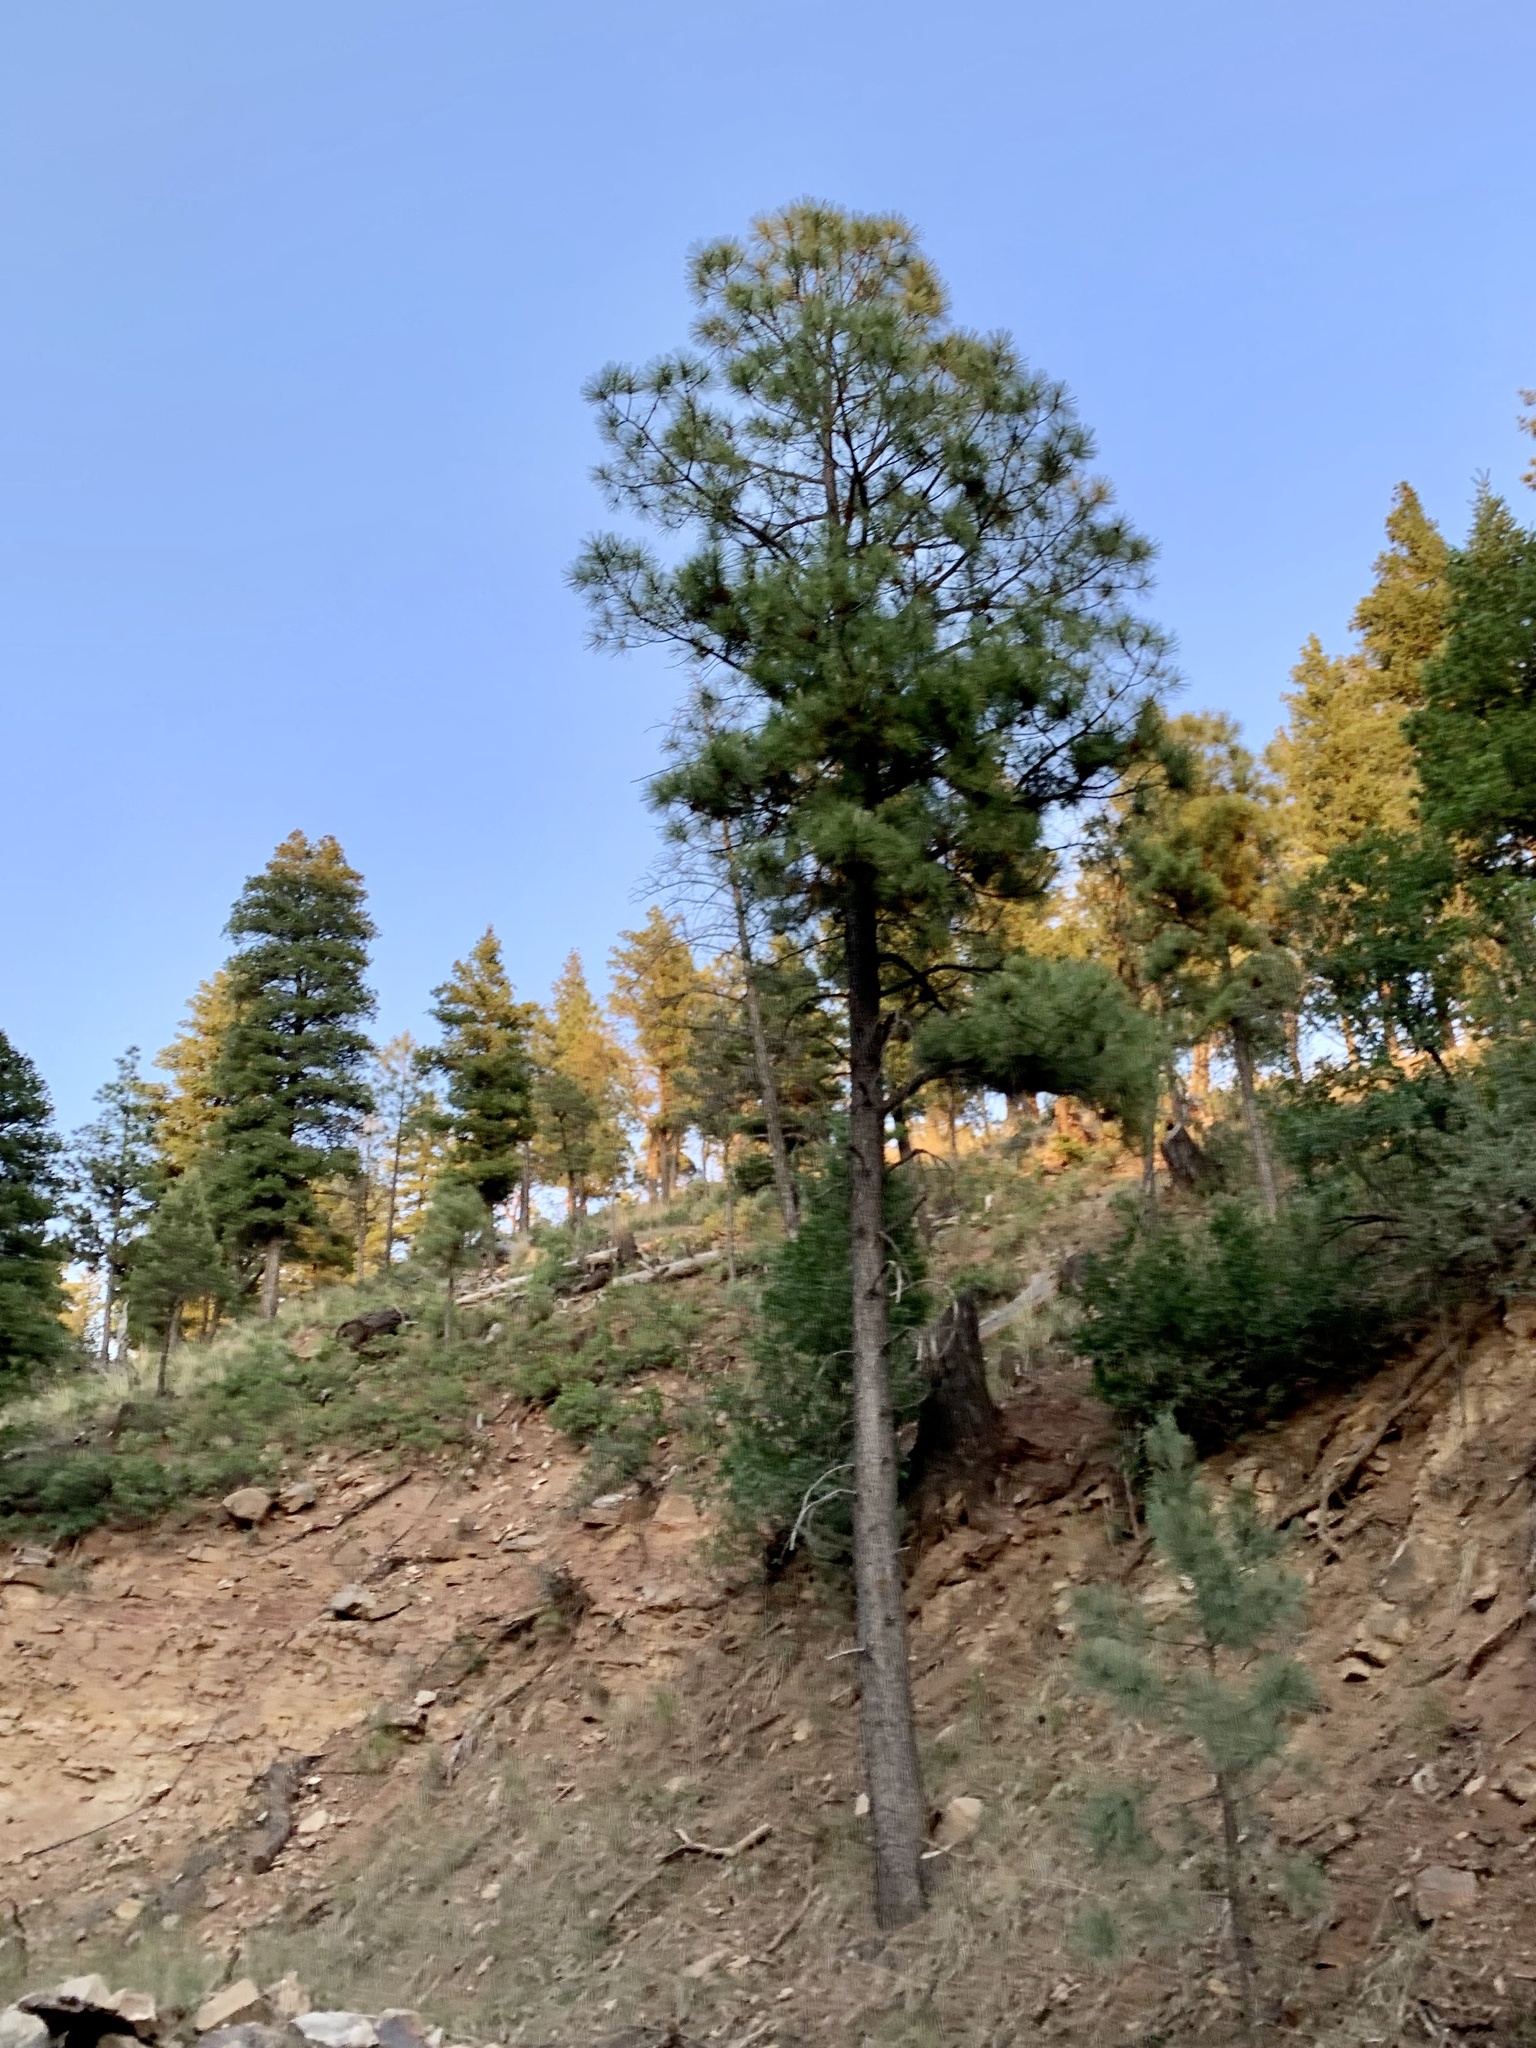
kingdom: Plantae
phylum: Tracheophyta
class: Pinopsida
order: Pinales
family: Pinaceae
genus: Pinus
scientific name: Pinus ponderosa
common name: Western yellow-pine
